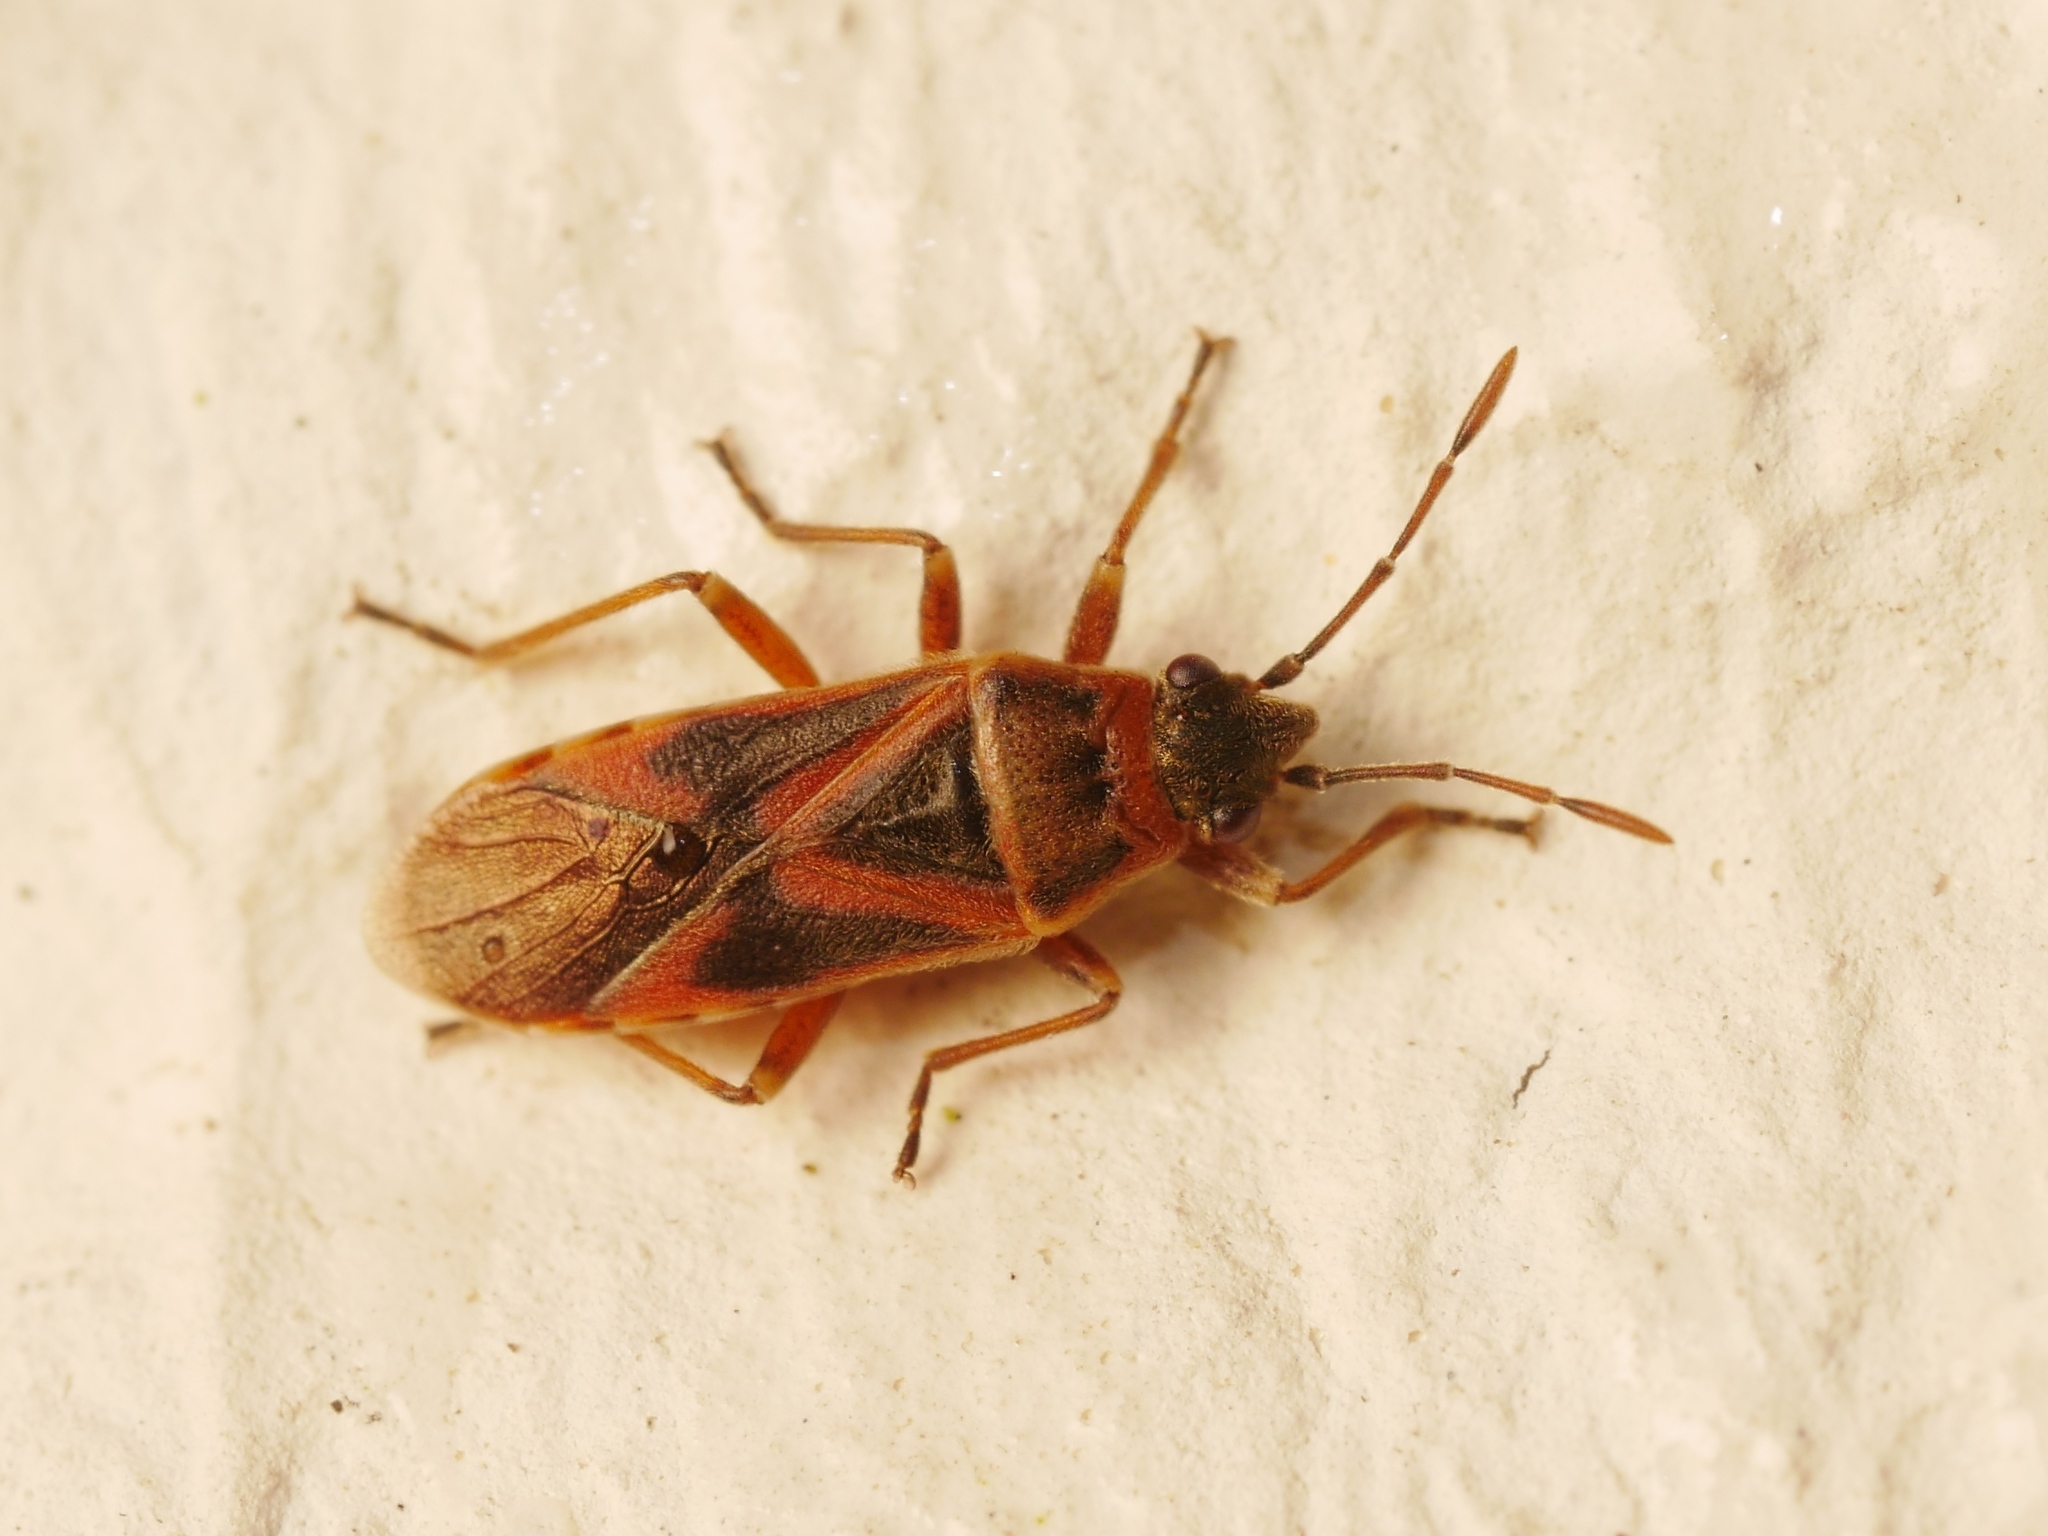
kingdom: Animalia
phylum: Arthropoda
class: Insecta
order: Hemiptera
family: Lygaeidae
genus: Arocatus
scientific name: Arocatus roeselii
